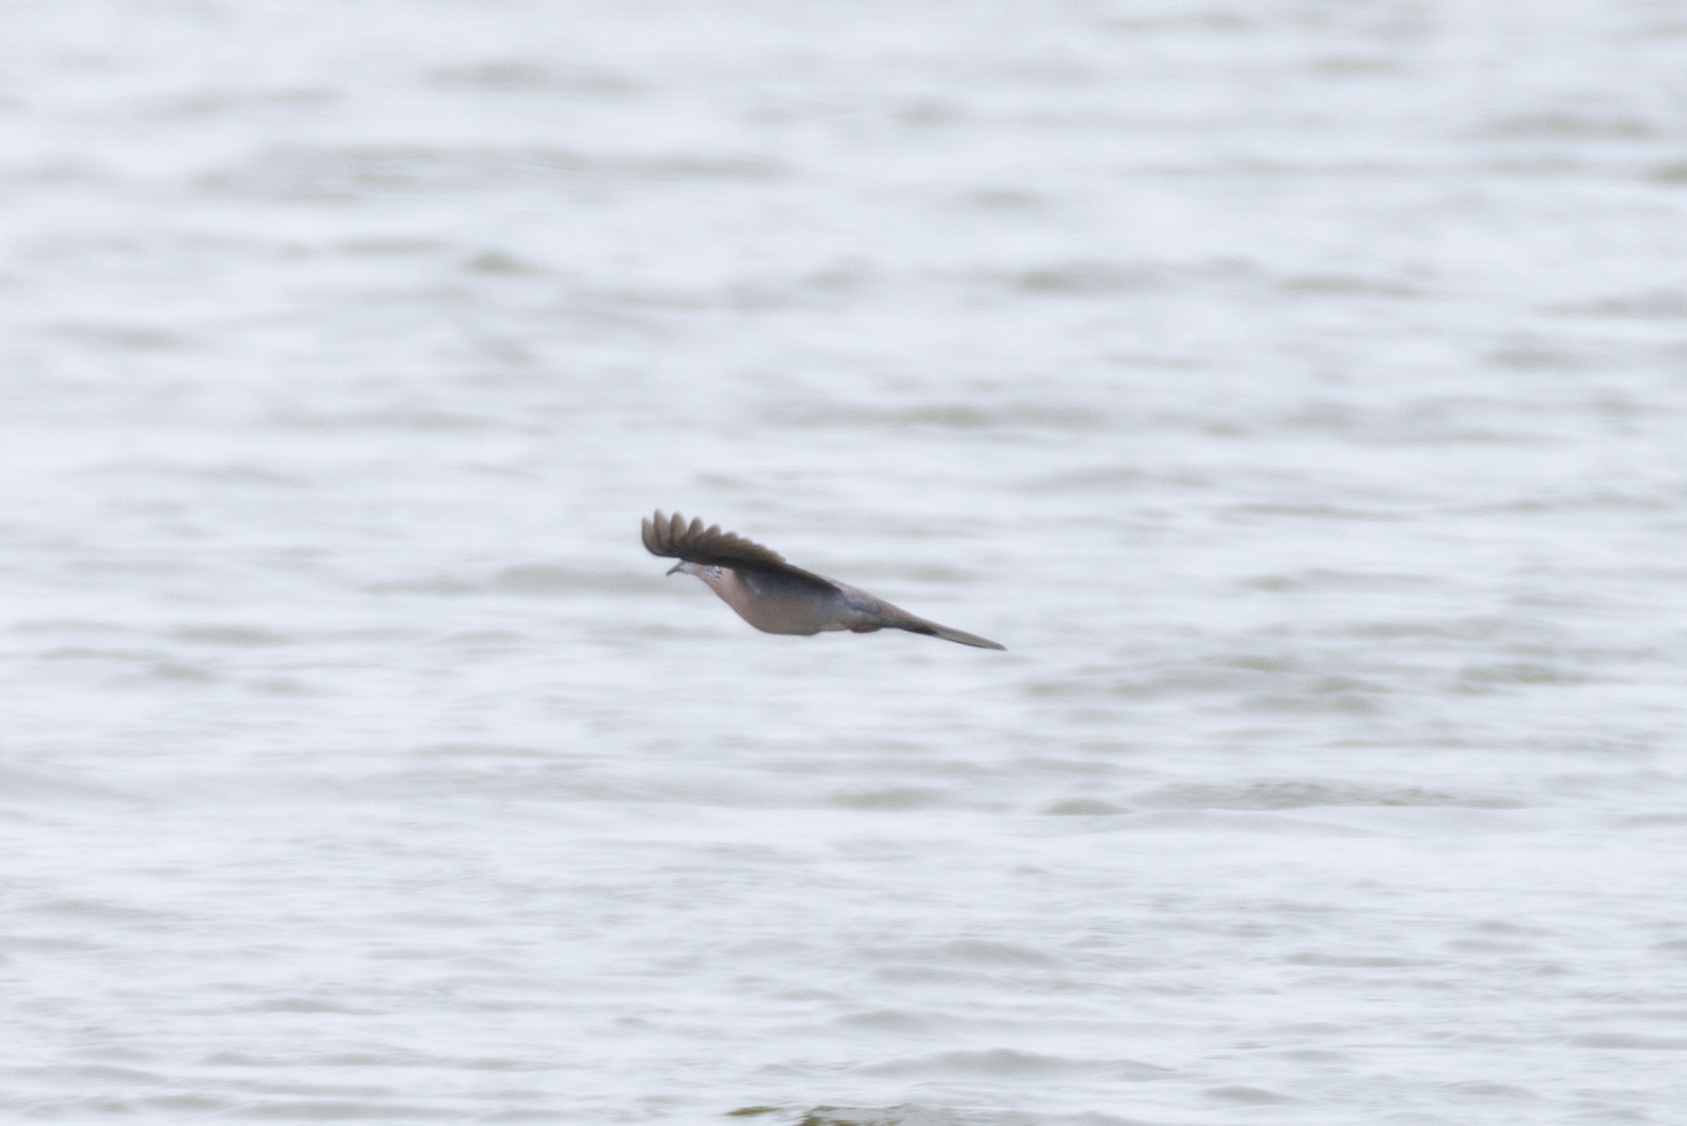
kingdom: Animalia
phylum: Chordata
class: Aves
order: Columbiformes
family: Columbidae
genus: Spilopelia
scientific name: Spilopelia chinensis
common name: Spotted dove
